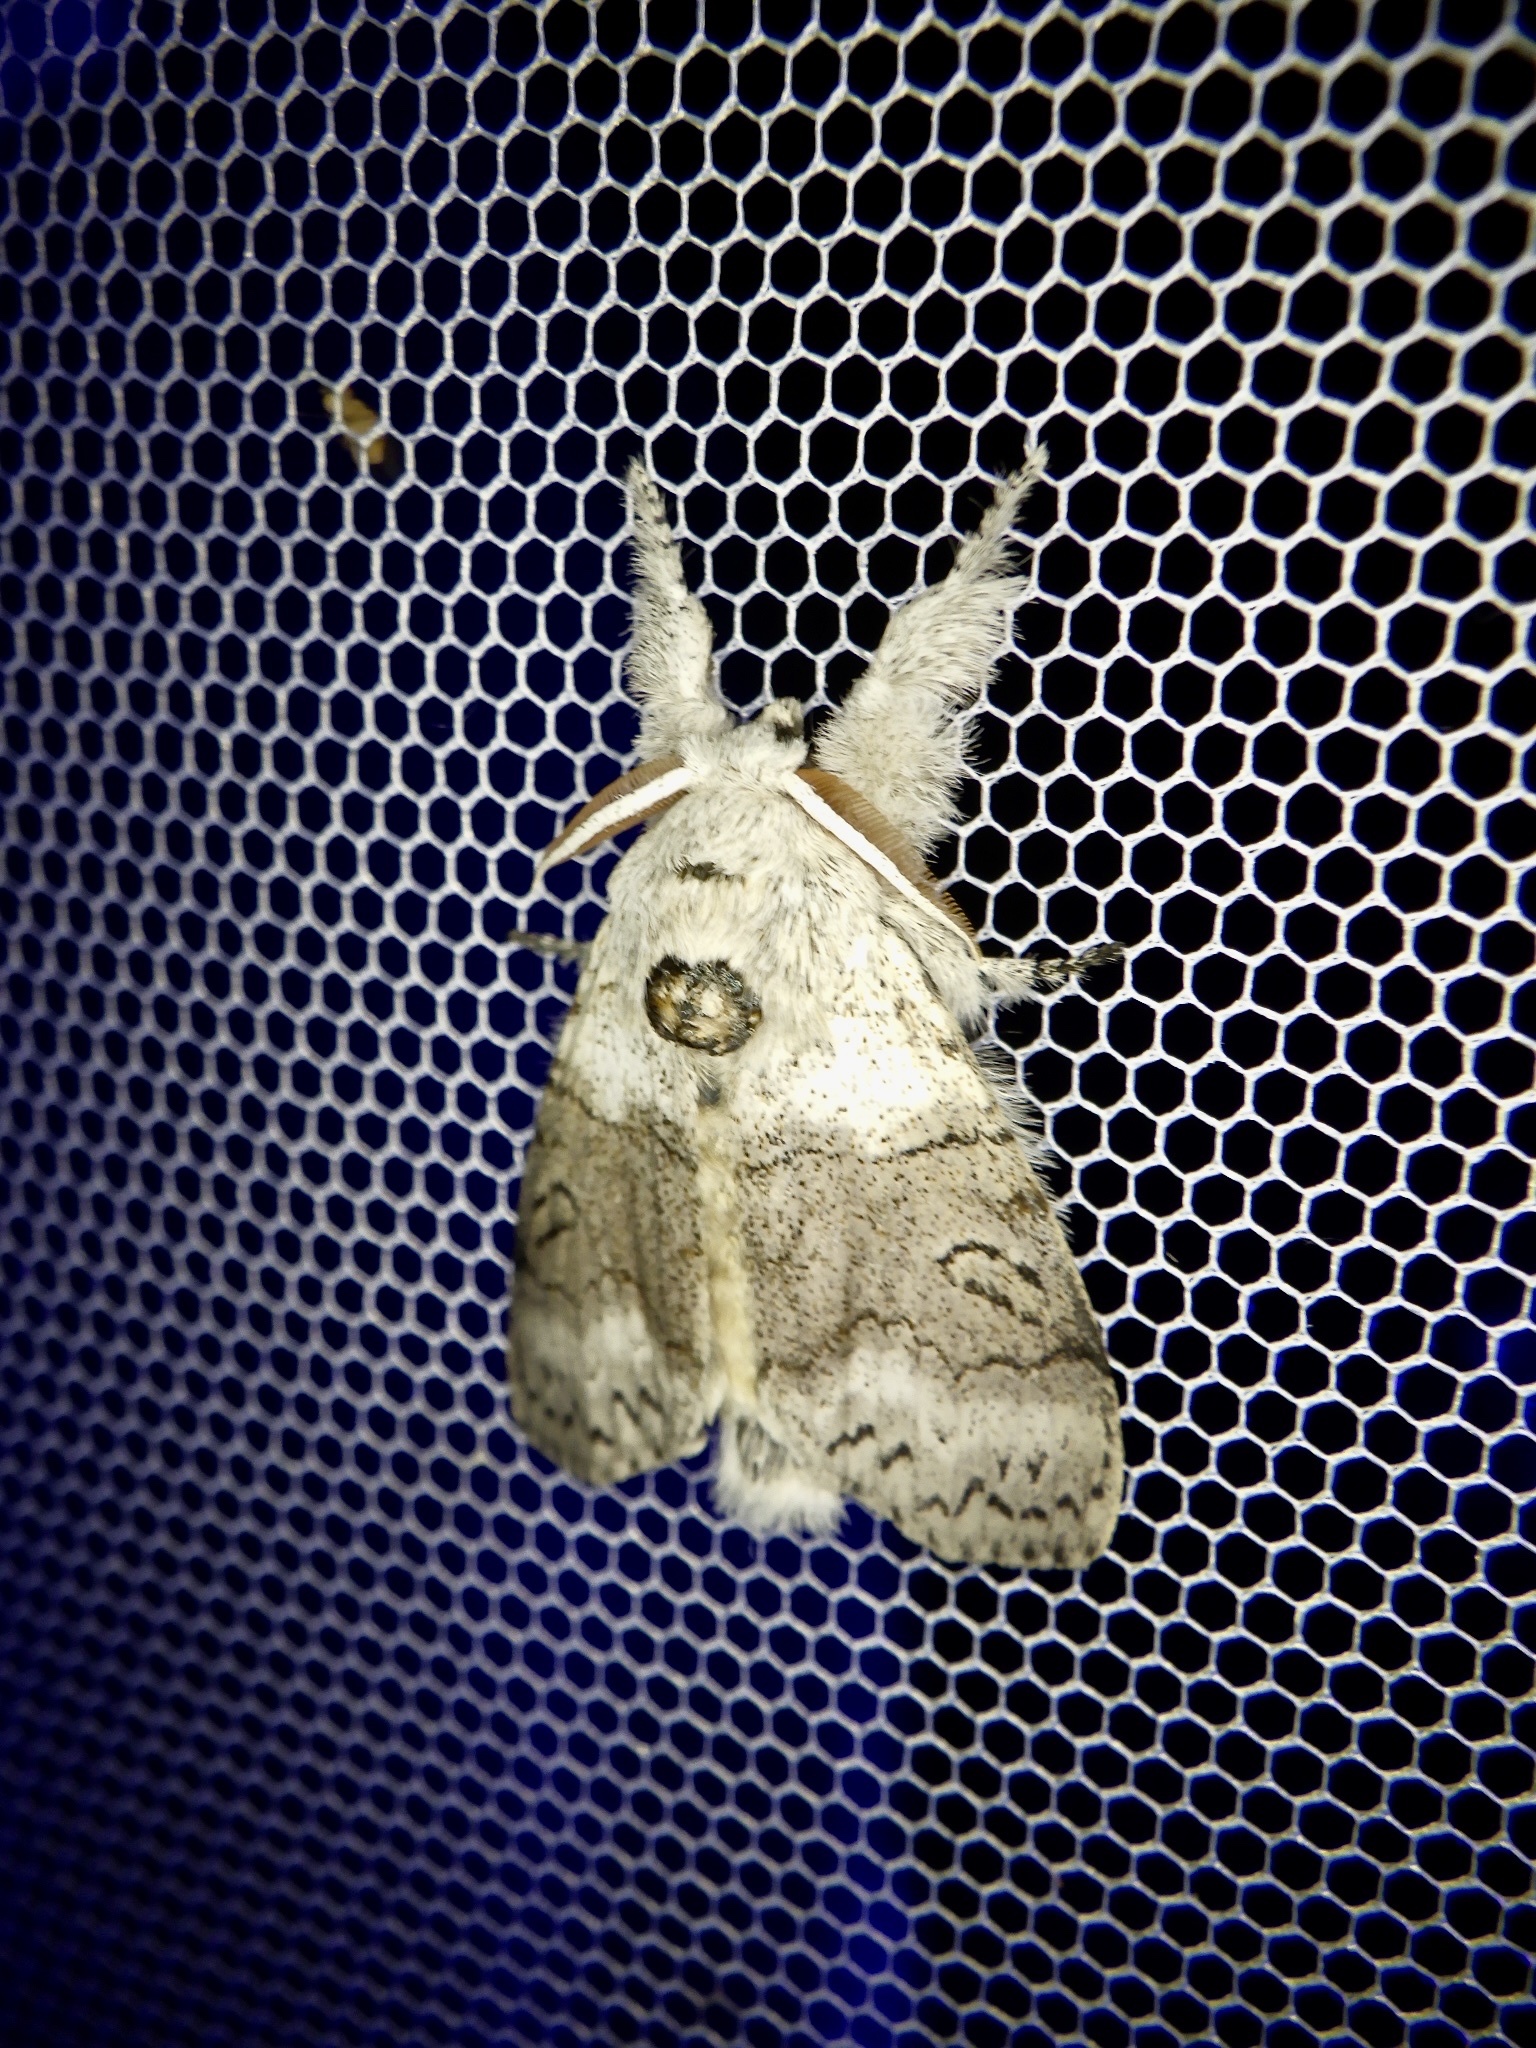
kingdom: Animalia
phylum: Arthropoda
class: Insecta
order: Lepidoptera
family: Erebidae
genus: Calliteara
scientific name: Calliteara
